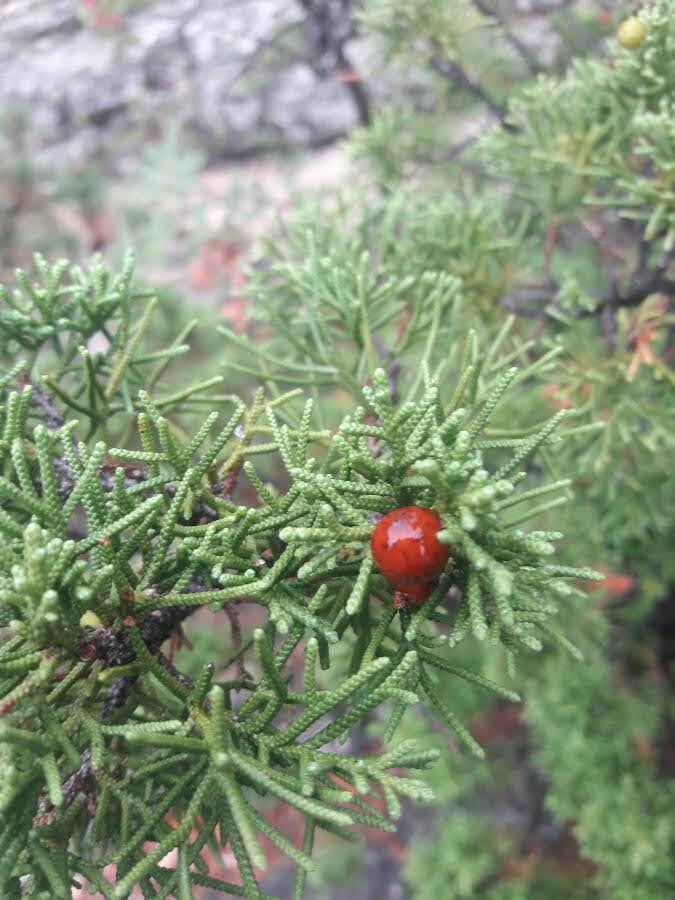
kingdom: Plantae
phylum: Tracheophyta
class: Pinopsida
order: Pinales
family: Cupressaceae
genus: Juniperus
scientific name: Juniperus phoenicea
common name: Phoenician juniper
